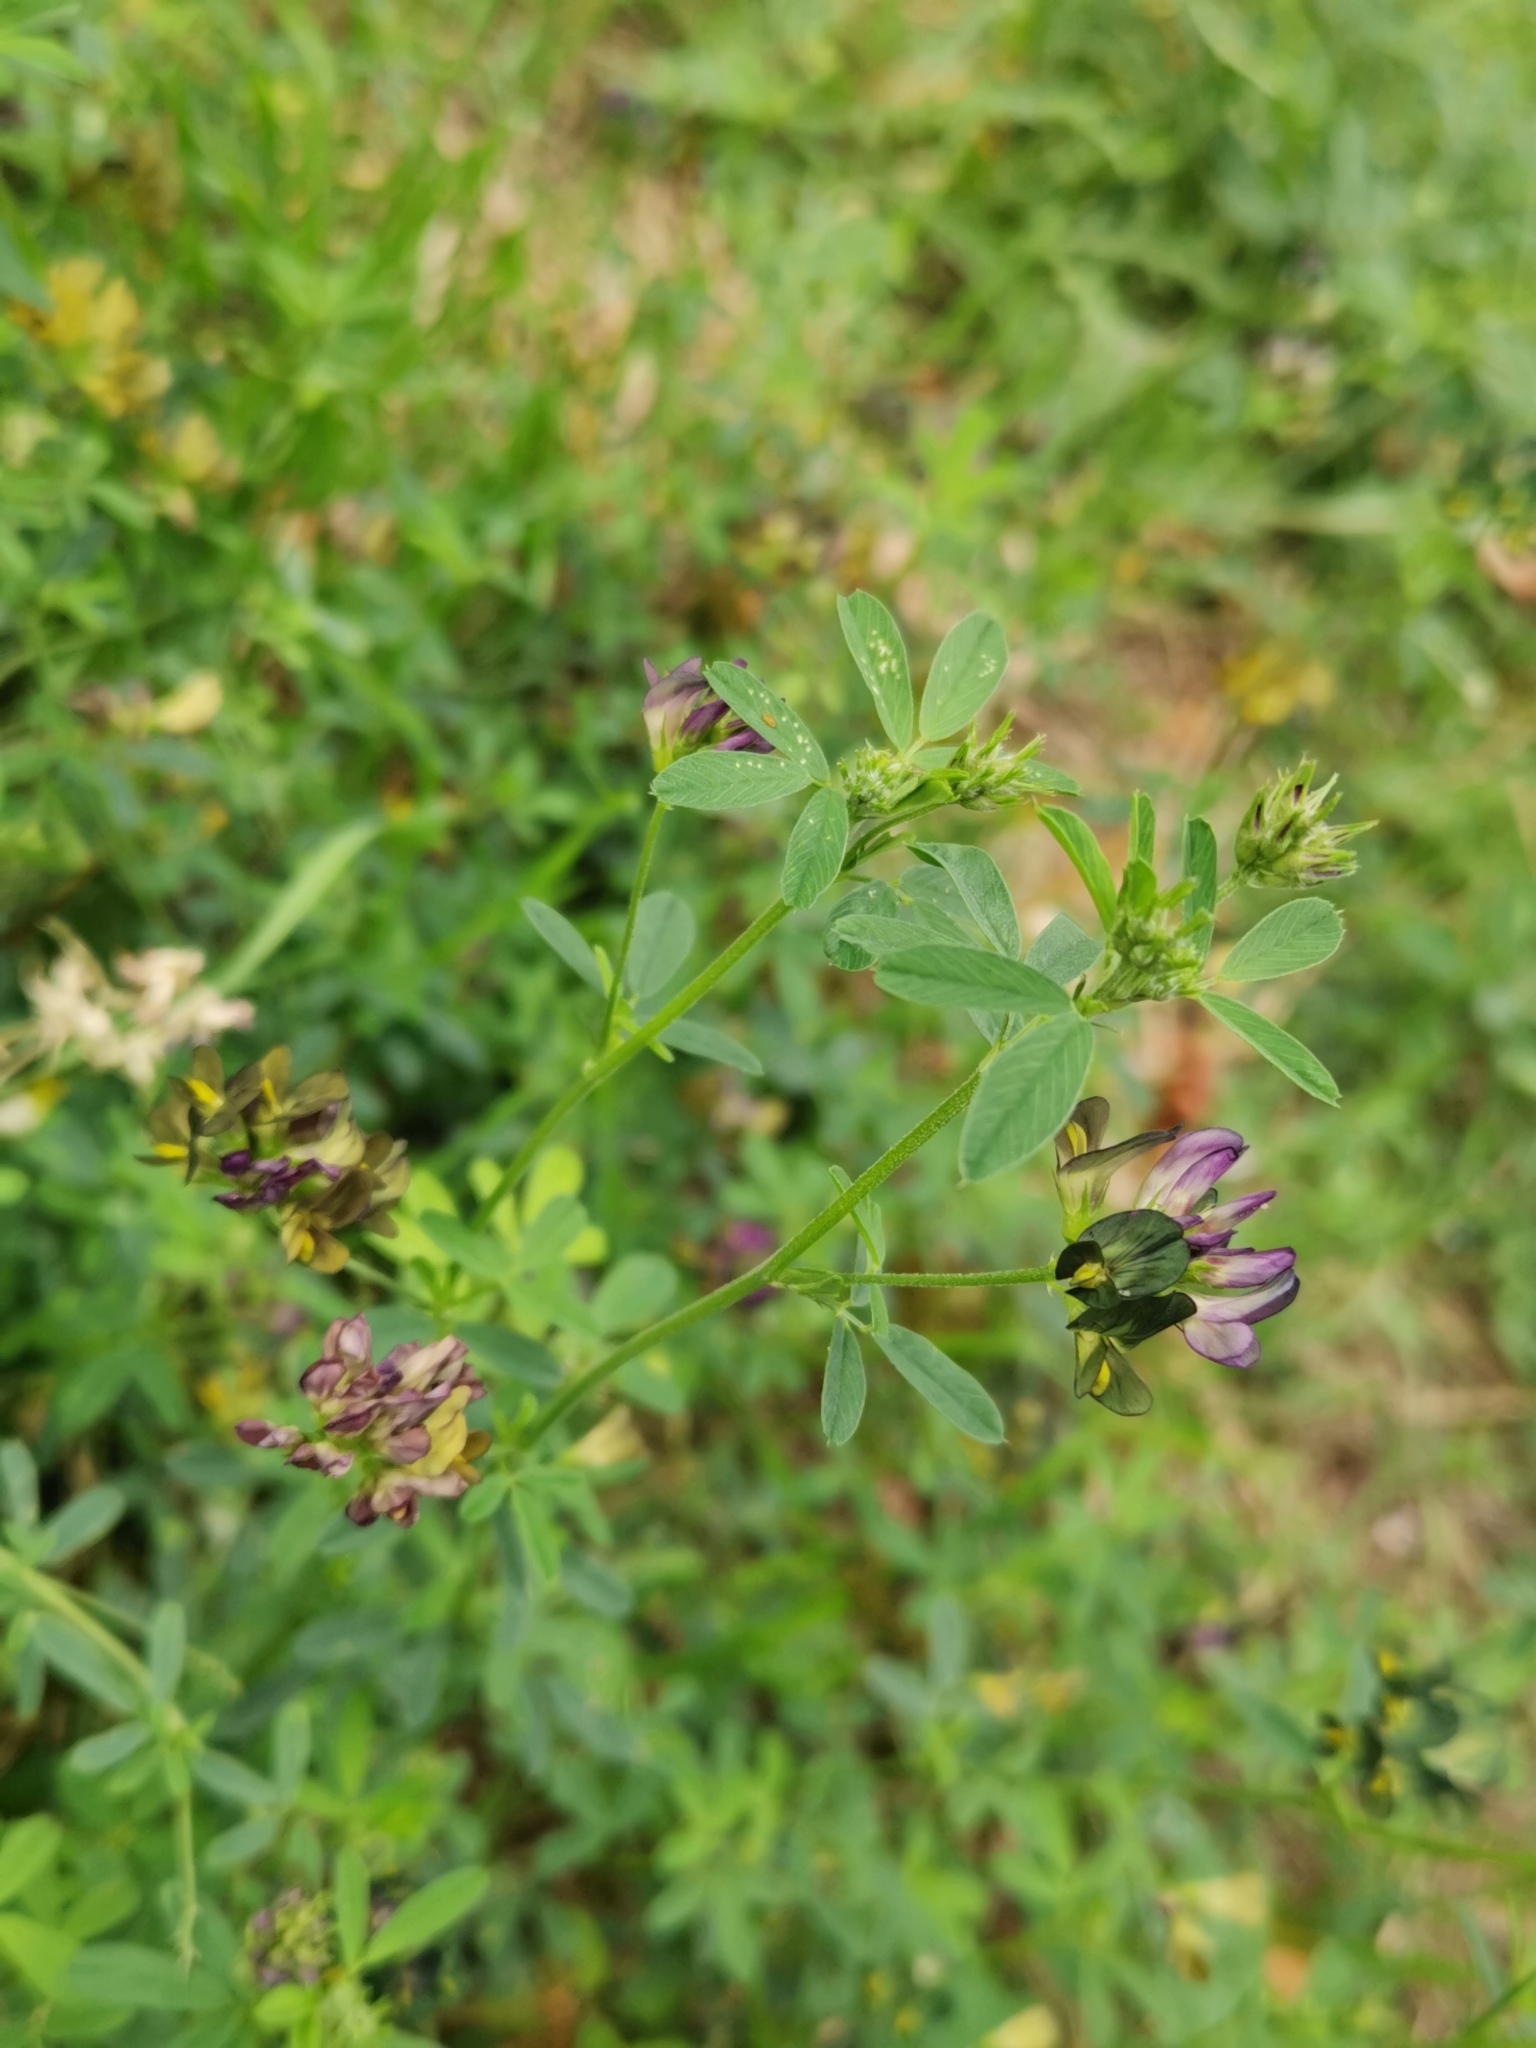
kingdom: Plantae
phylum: Tracheophyta
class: Magnoliopsida
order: Fabales
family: Fabaceae
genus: Medicago
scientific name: Medicago varia
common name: Sand lucerne
